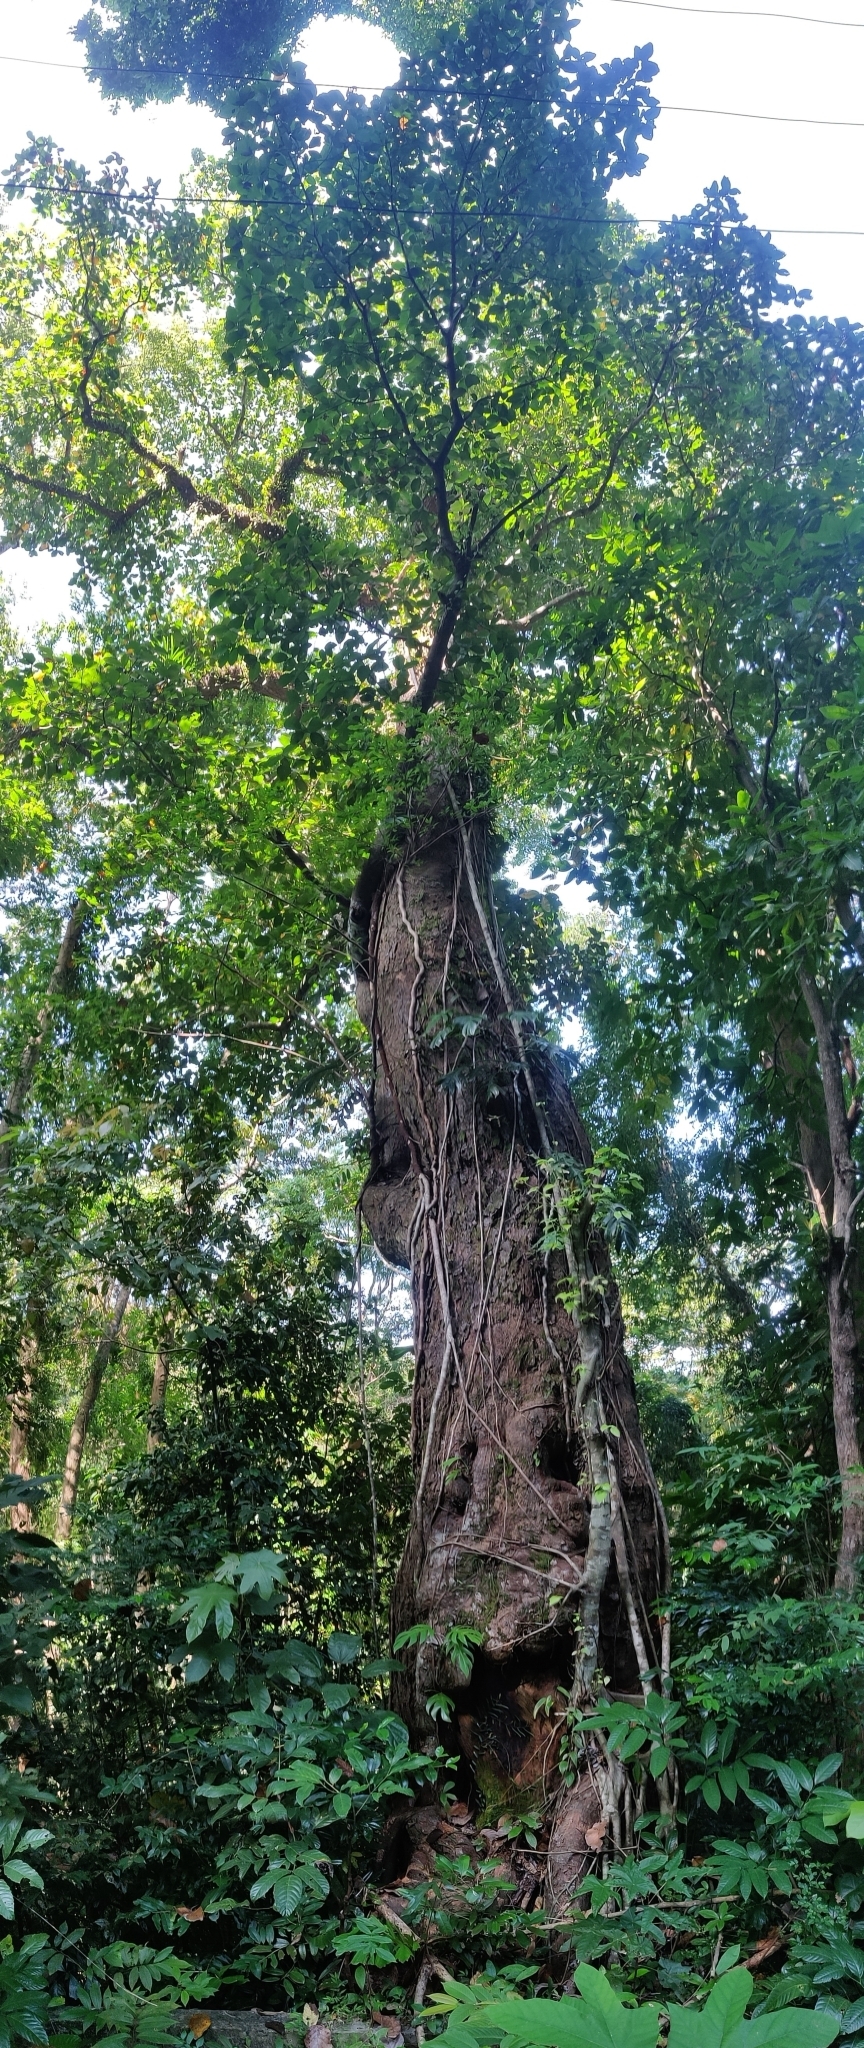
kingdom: Plantae
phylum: Tracheophyta
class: Magnoliopsida
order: Rosales
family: Moraceae
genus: Artocarpus
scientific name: Artocarpus chama
